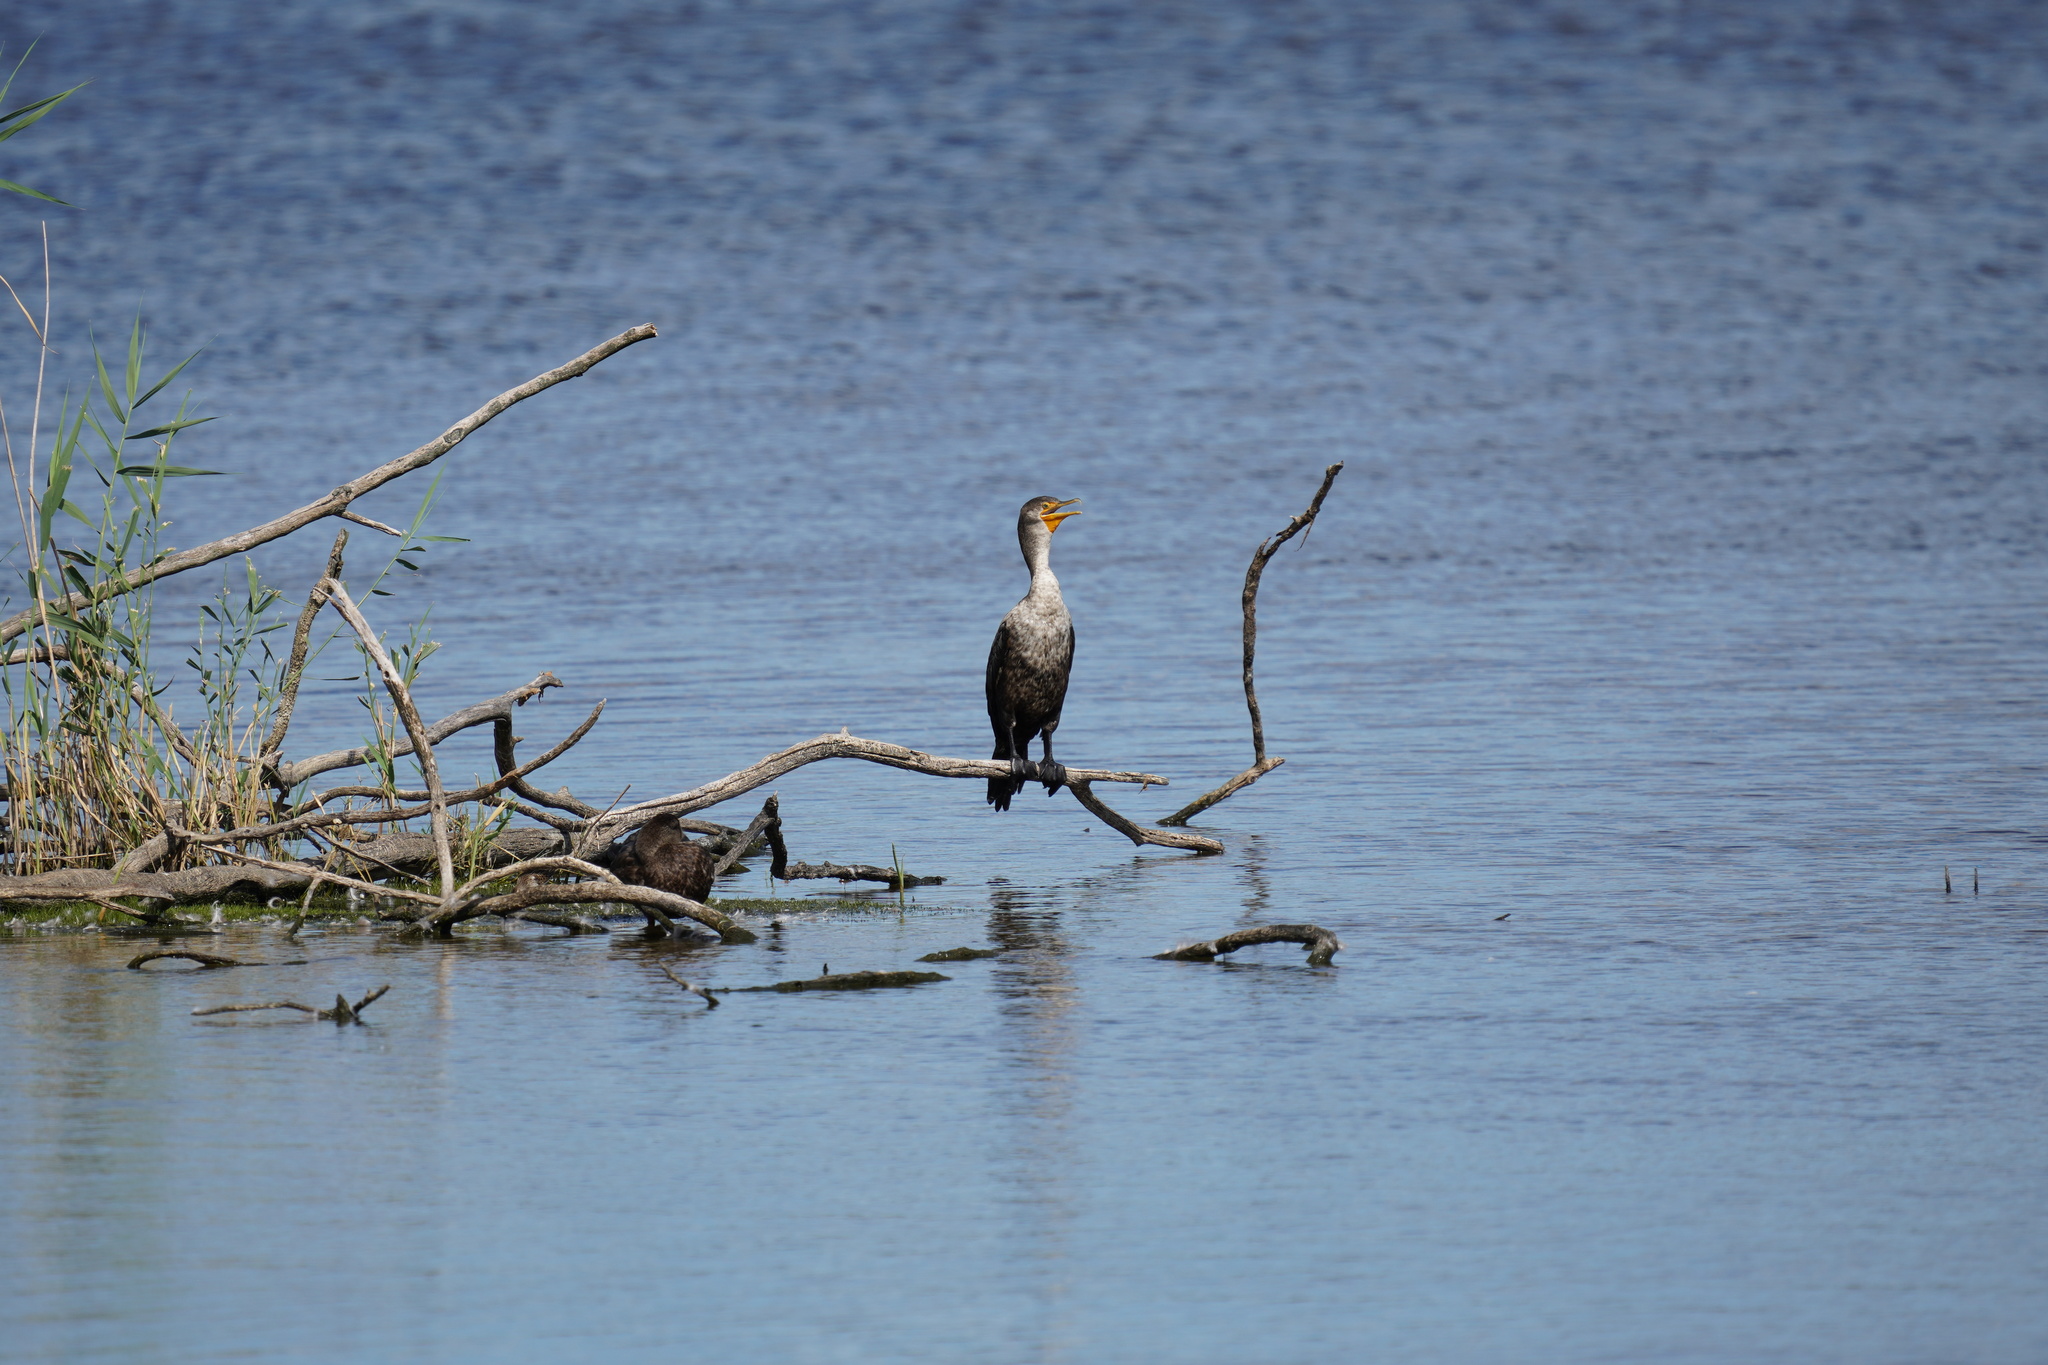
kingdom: Animalia
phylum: Chordata
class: Aves
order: Suliformes
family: Phalacrocoracidae
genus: Phalacrocorax
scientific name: Phalacrocorax auritus
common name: Double-crested cormorant
